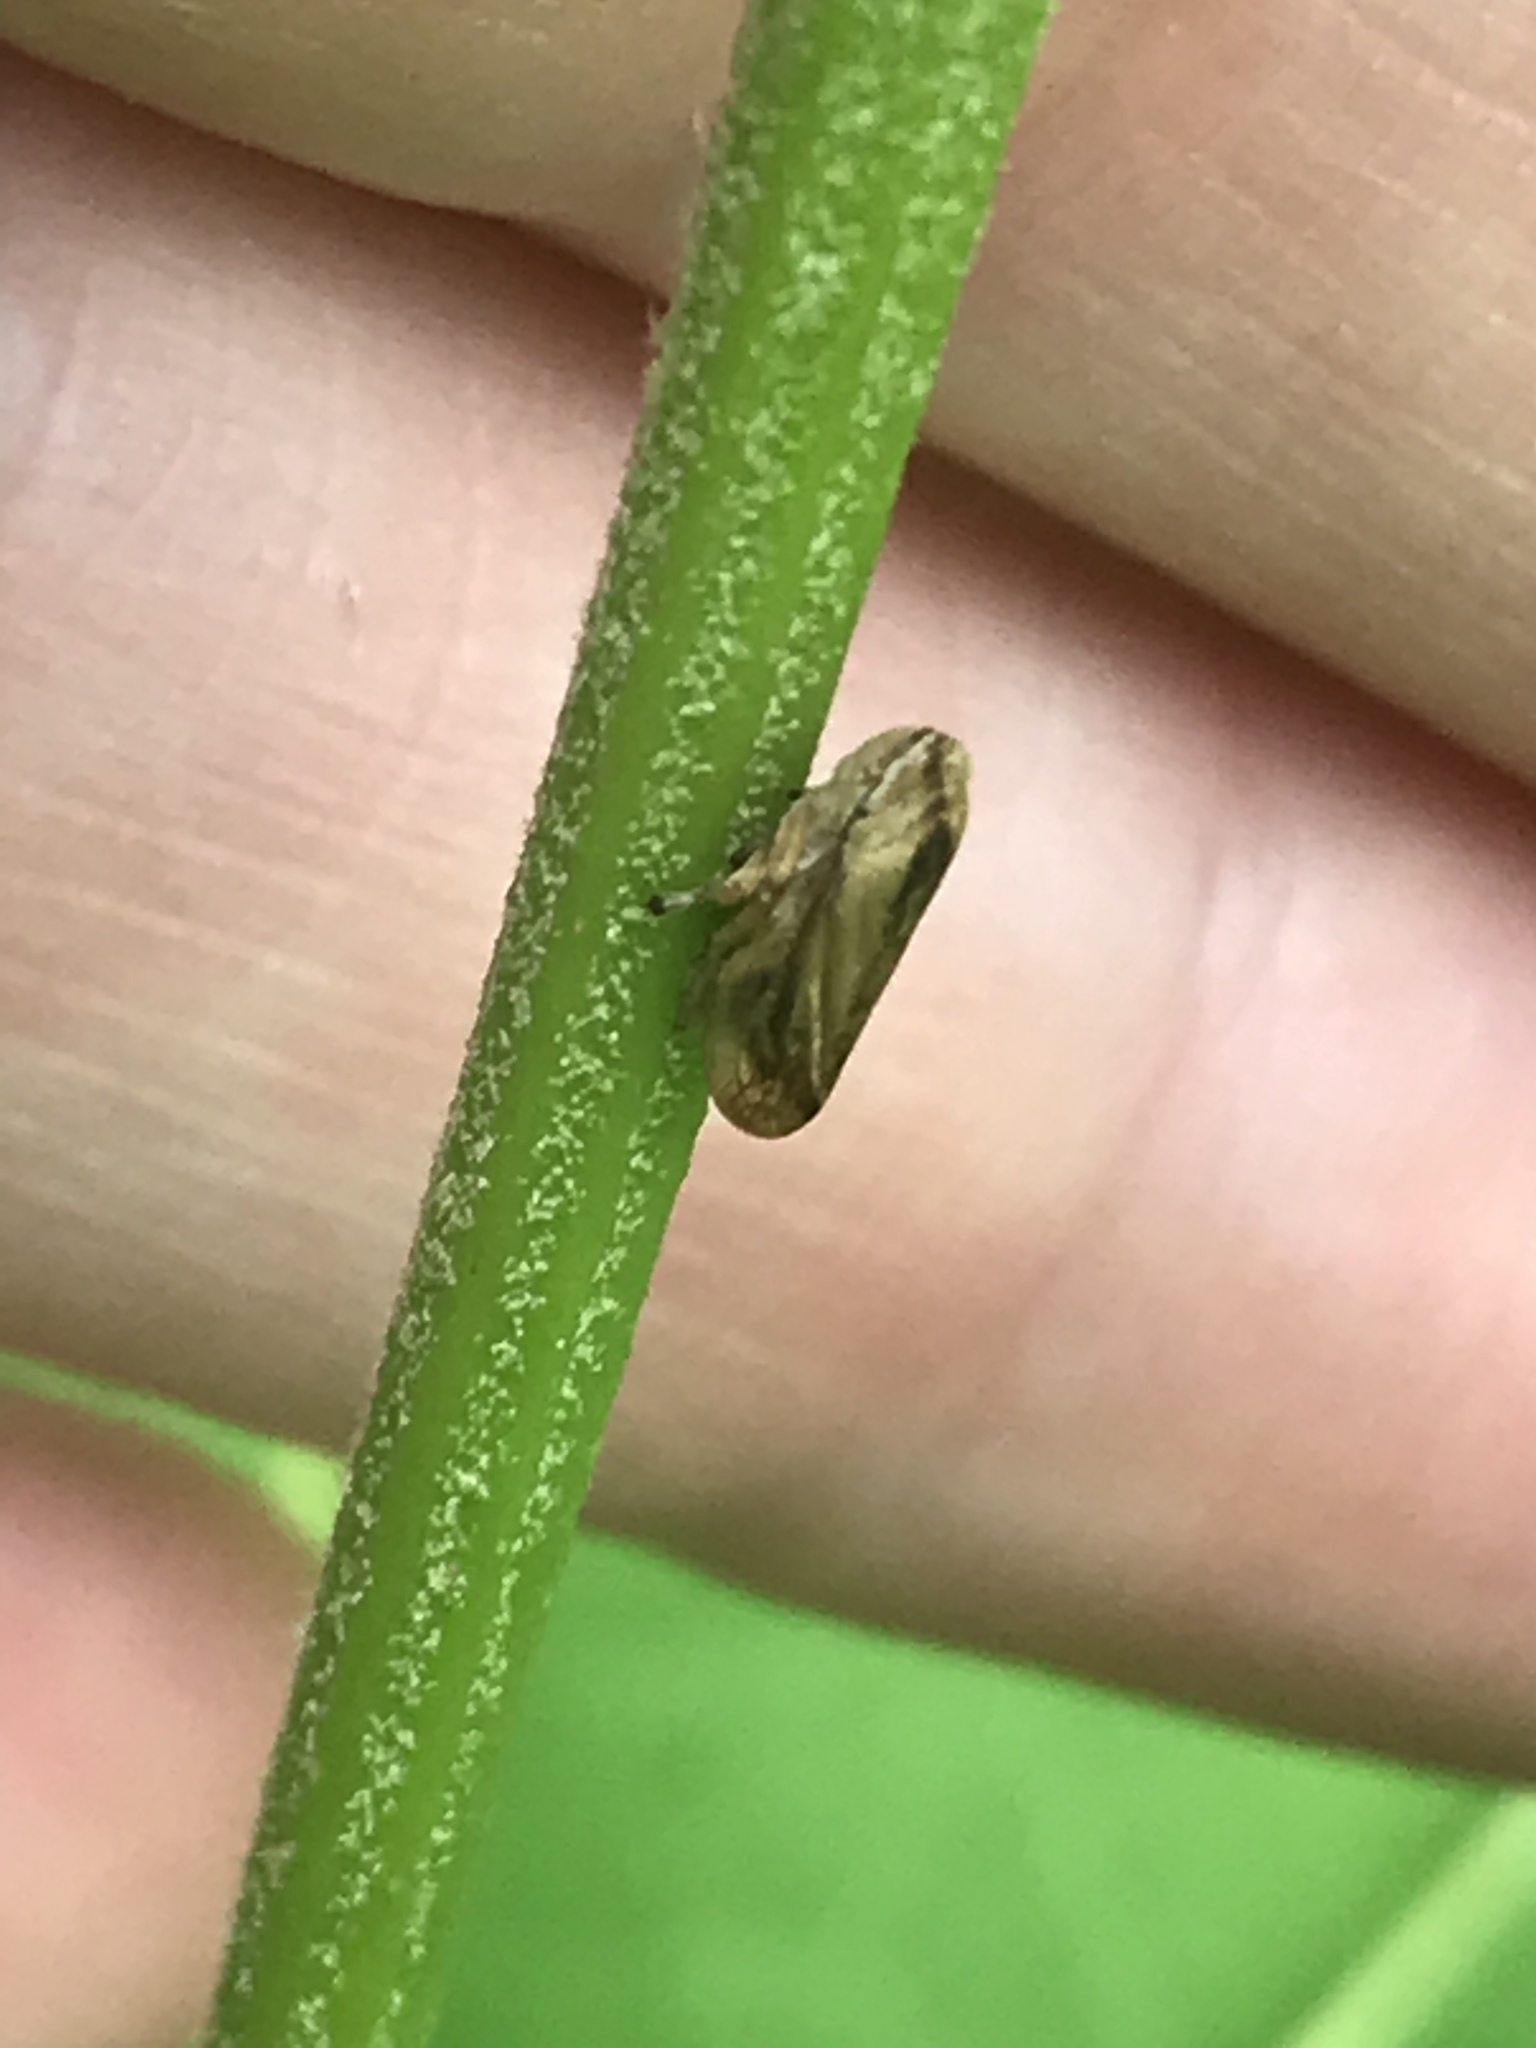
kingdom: Animalia
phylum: Arthropoda
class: Insecta
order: Hemiptera
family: Aphrophoridae
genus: Philaenus
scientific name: Philaenus spumarius
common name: Meadow spittlebug
